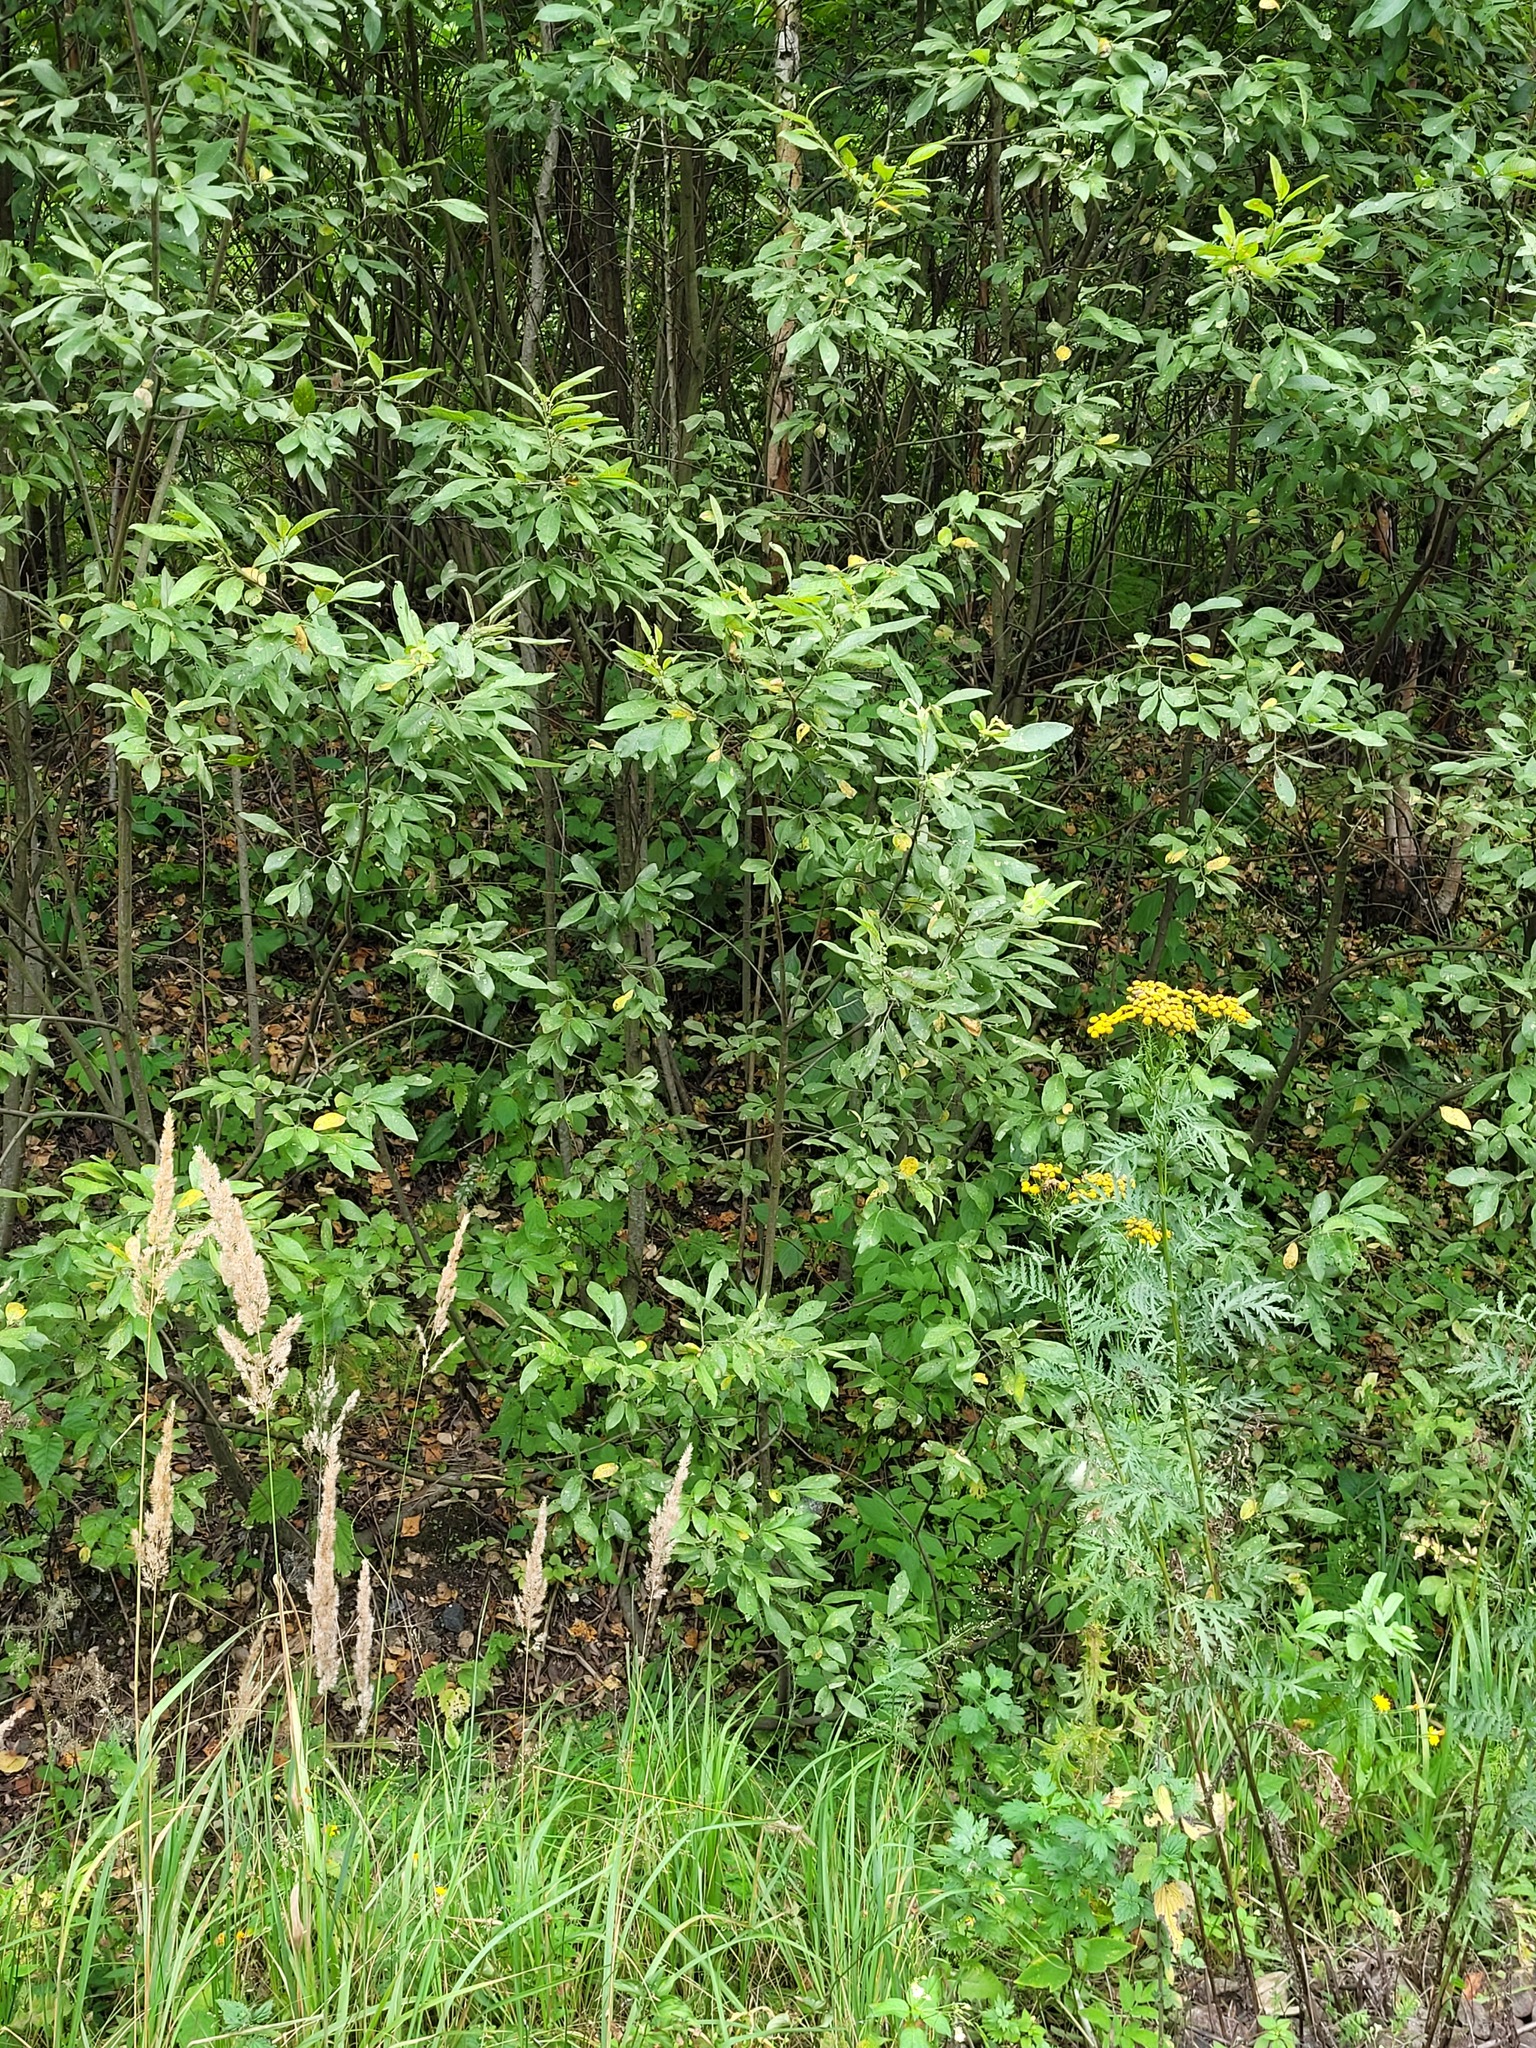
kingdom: Plantae
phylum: Tracheophyta
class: Magnoliopsida
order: Malpighiales
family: Salicaceae
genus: Salix
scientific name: Salix cinerea
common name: Common sallow
